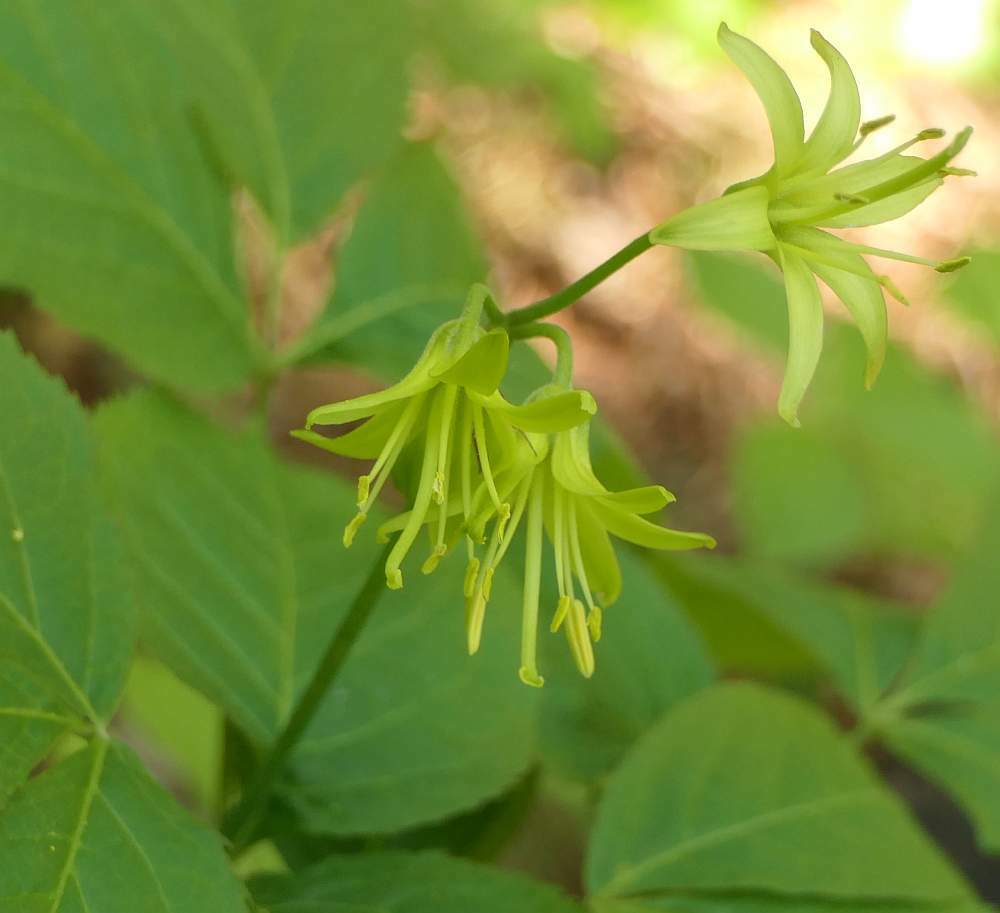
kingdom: Plantae
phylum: Tracheophyta
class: Liliopsida
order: Liliales
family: Liliaceae
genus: Clintonia
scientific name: Clintonia borealis
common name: Yellow clintonia
